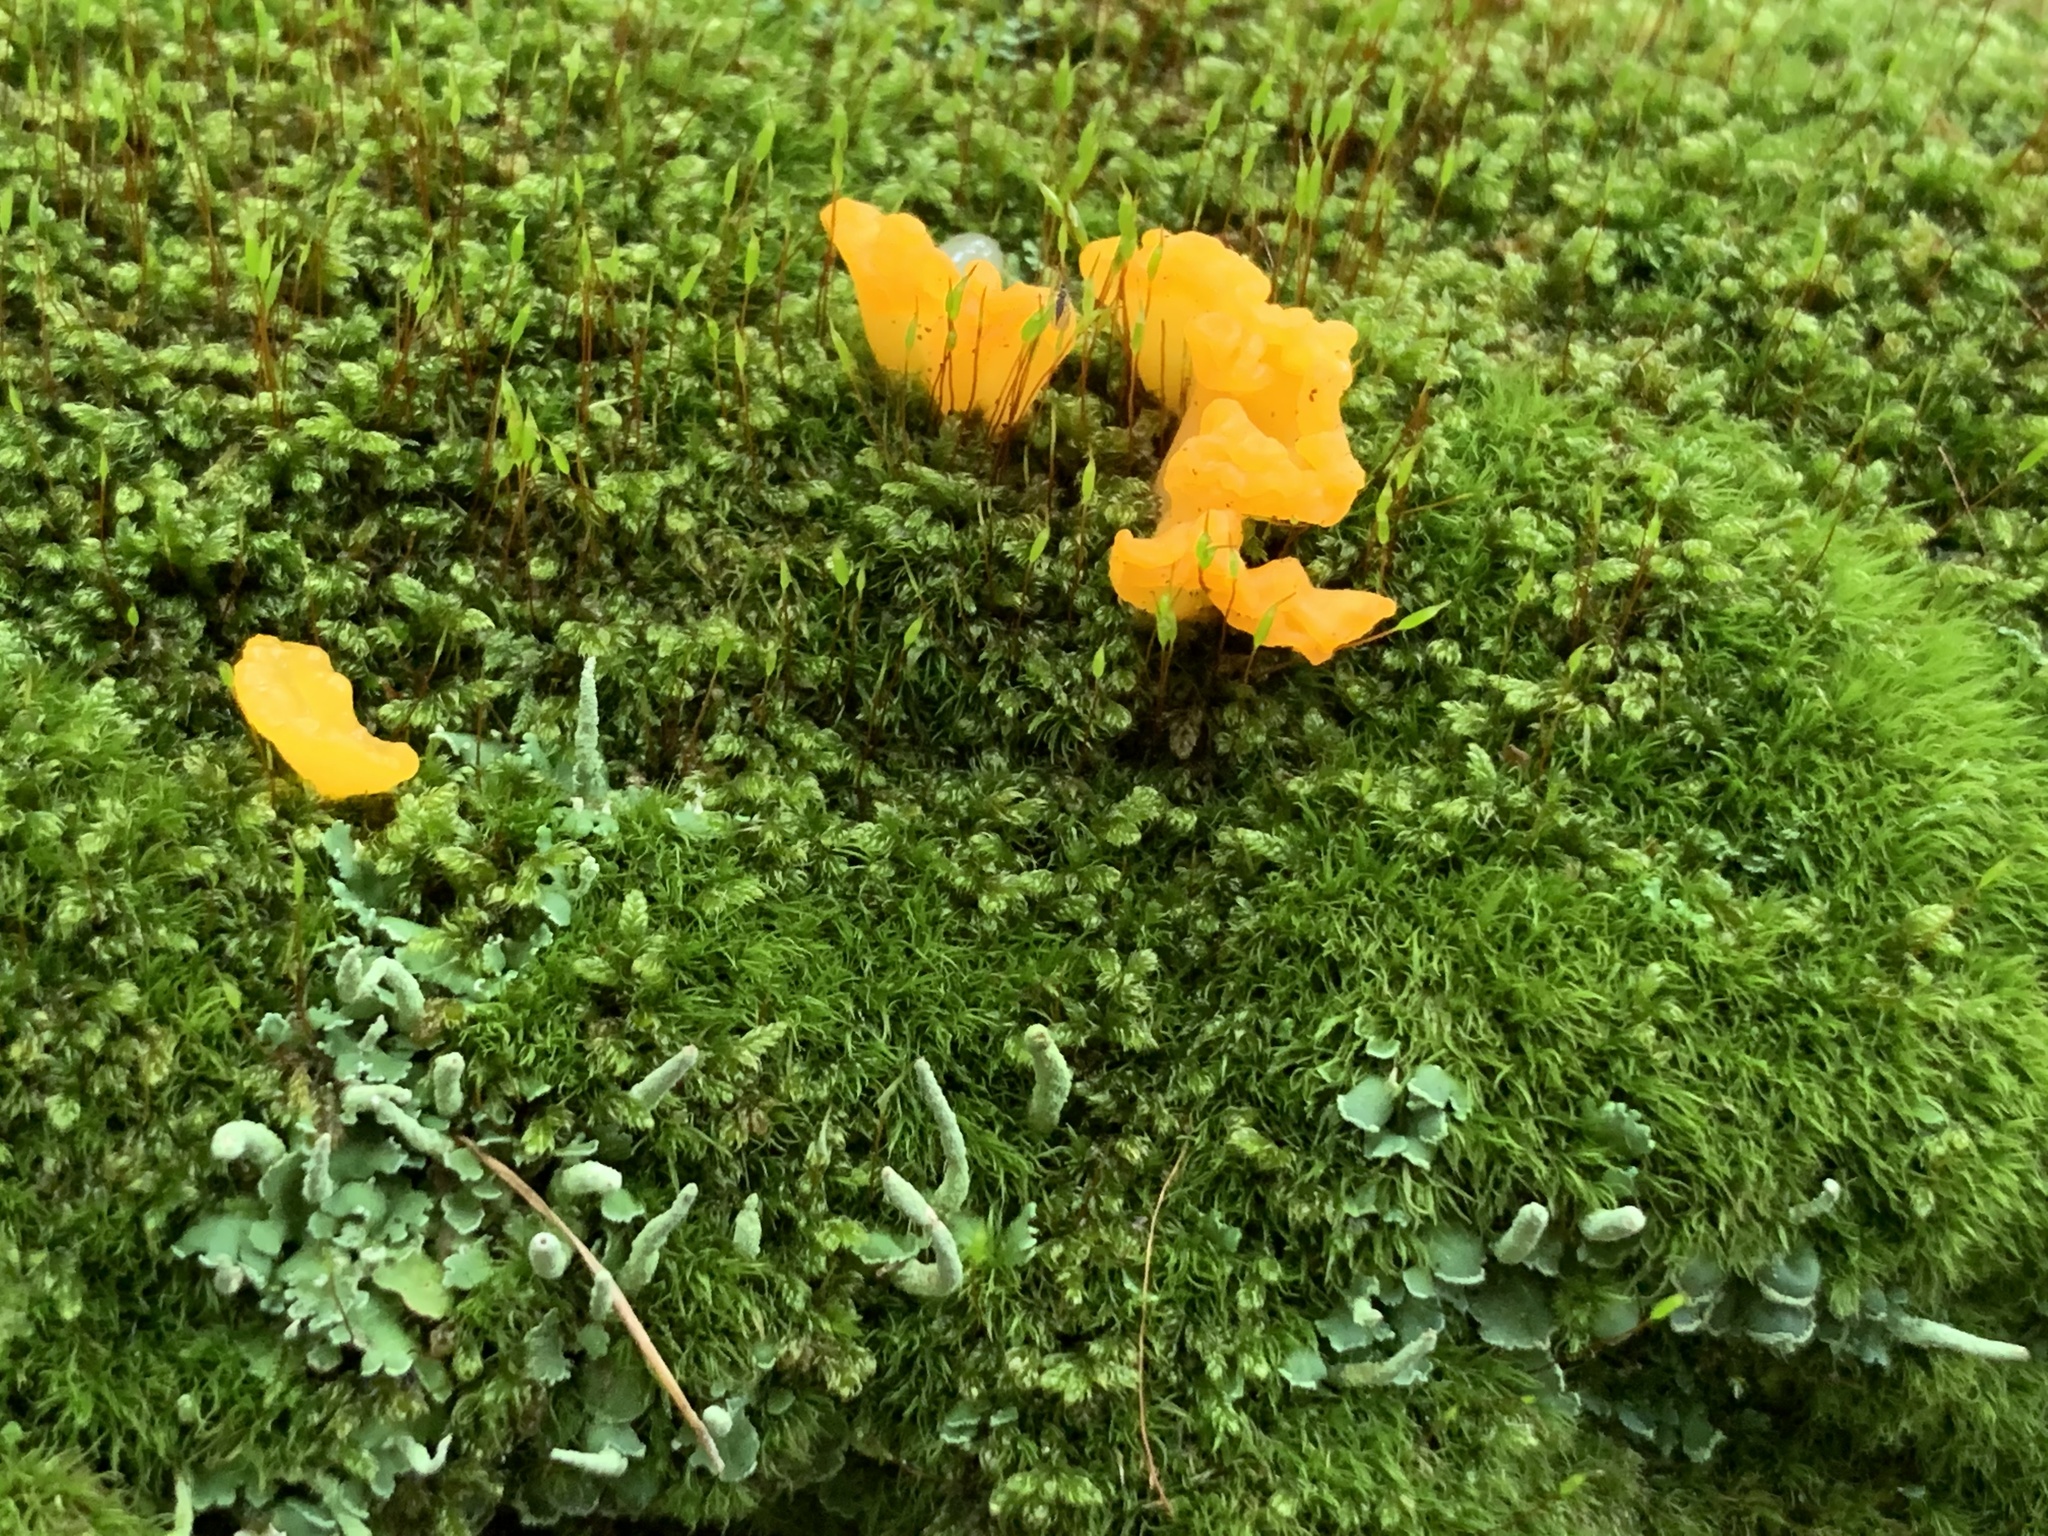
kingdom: Fungi
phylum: Basidiomycota
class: Dacrymycetes
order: Dacrymycetales
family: Dacrymycetaceae
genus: Dacrymyces
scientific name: Dacrymyces spathularius
